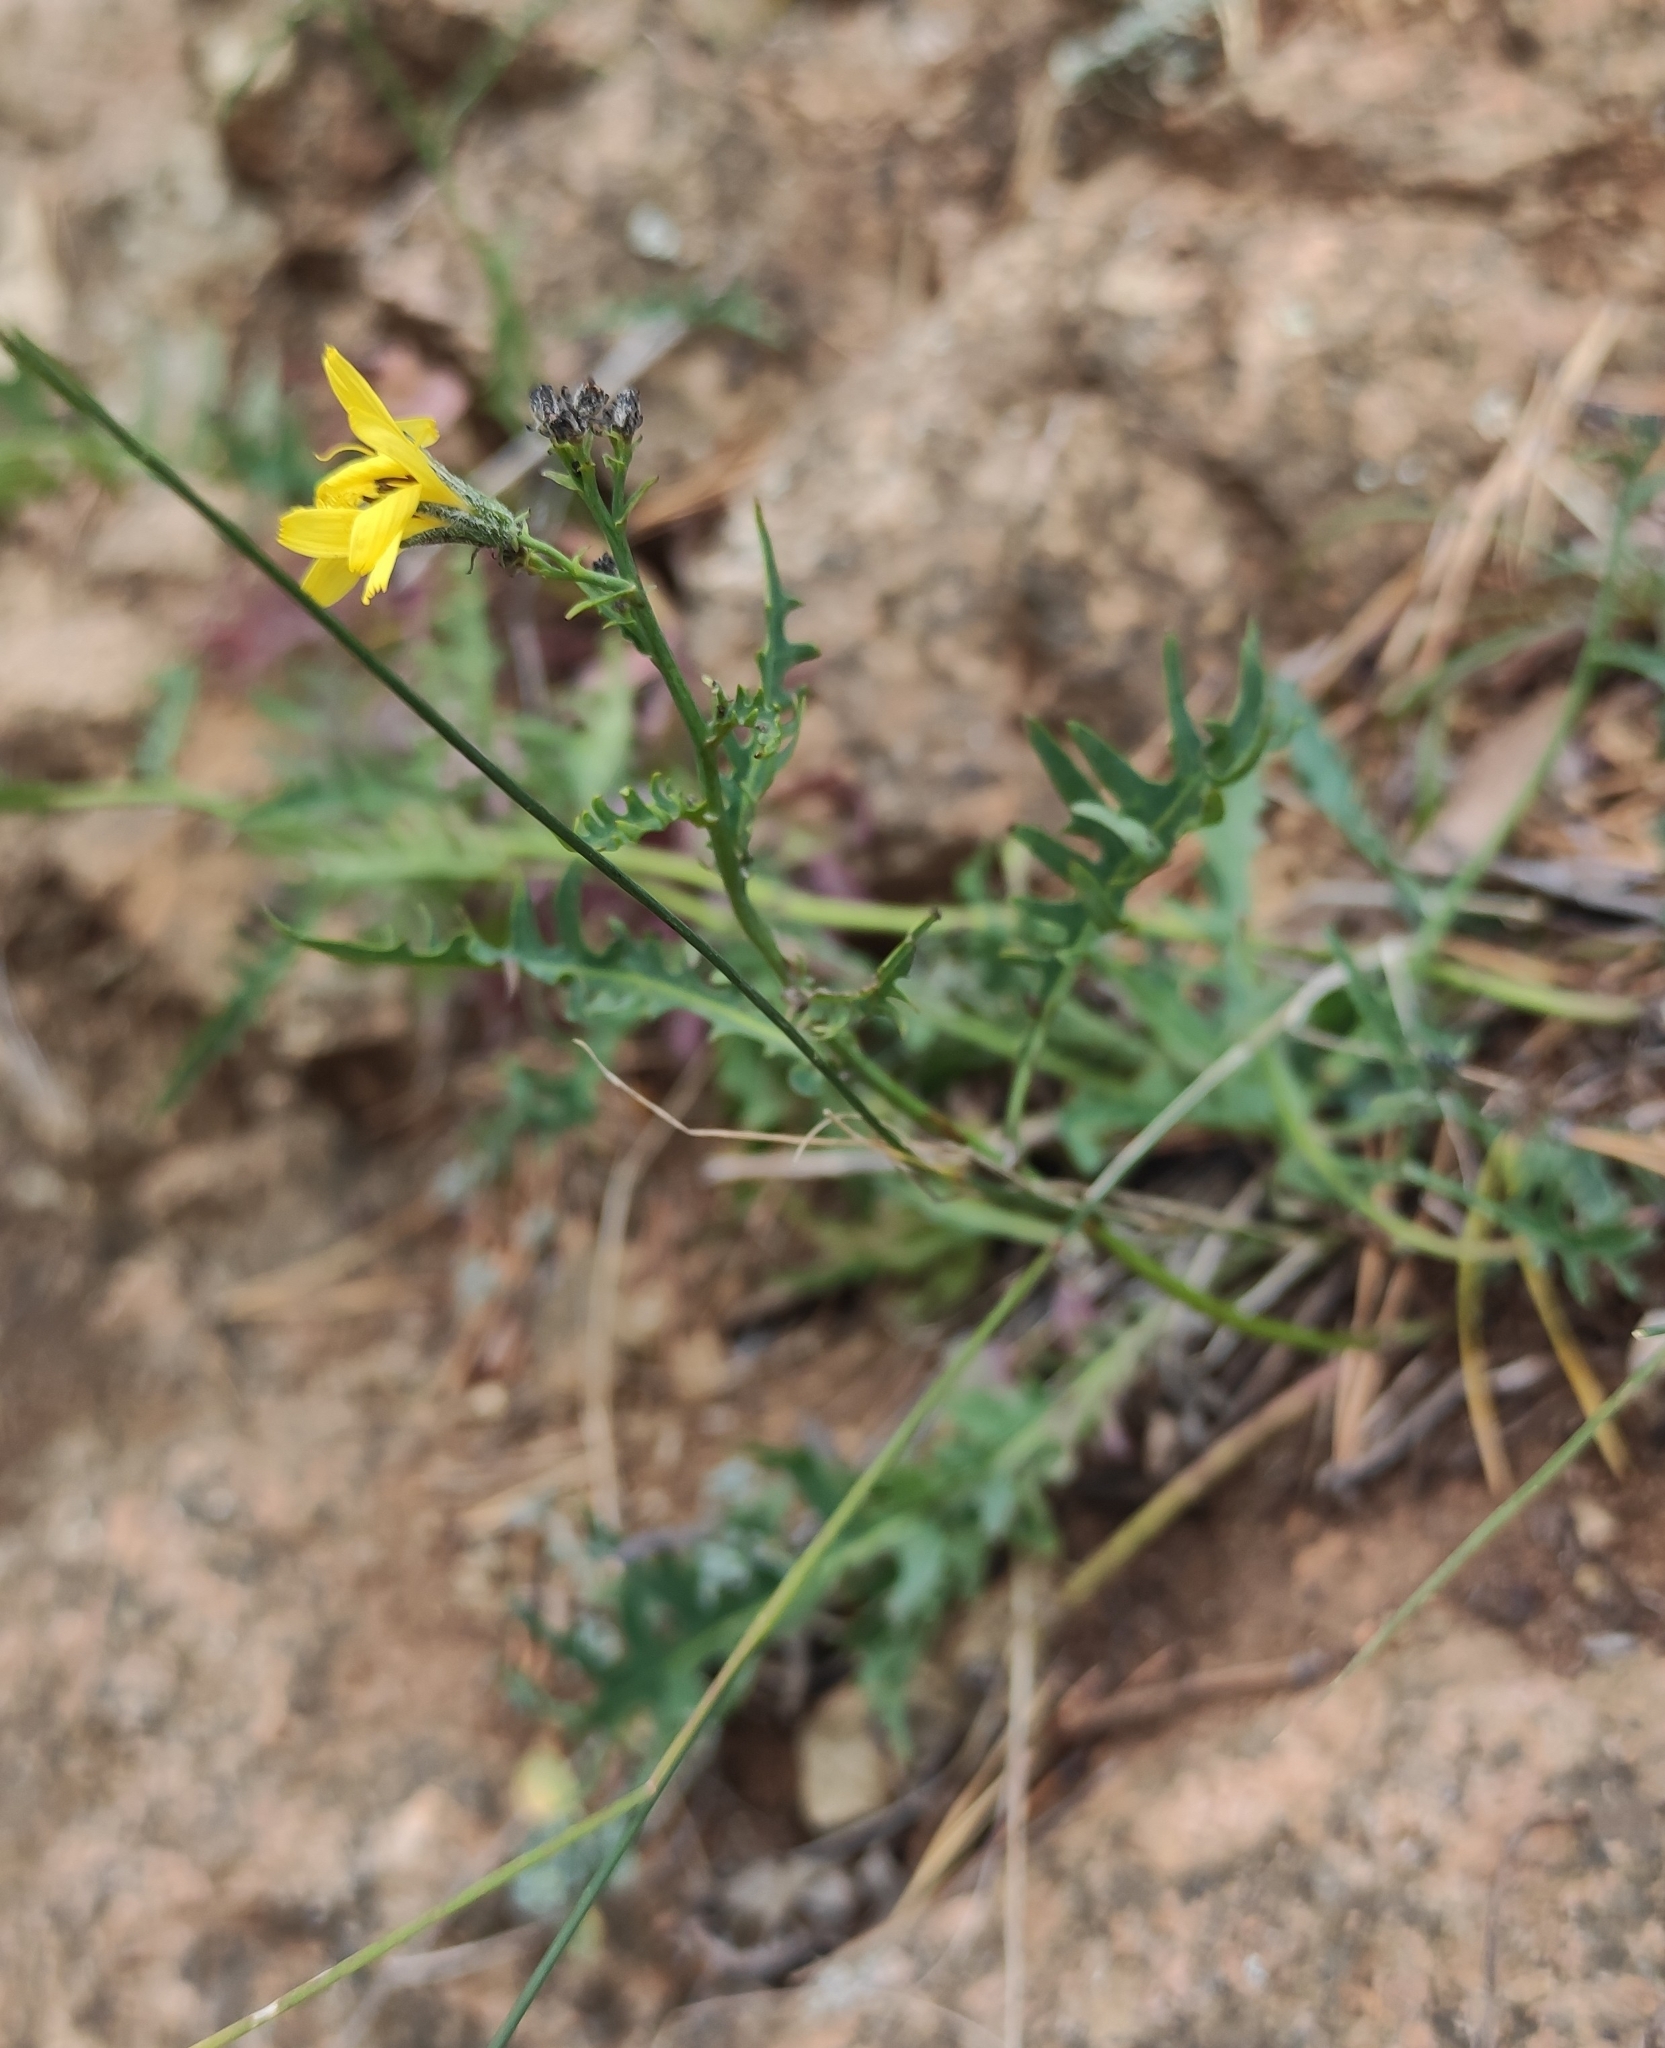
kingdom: Plantae
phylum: Tracheophyta
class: Magnoliopsida
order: Asterales
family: Asteraceae
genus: Crepidiastrum
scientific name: Crepidiastrum tenuifolium
